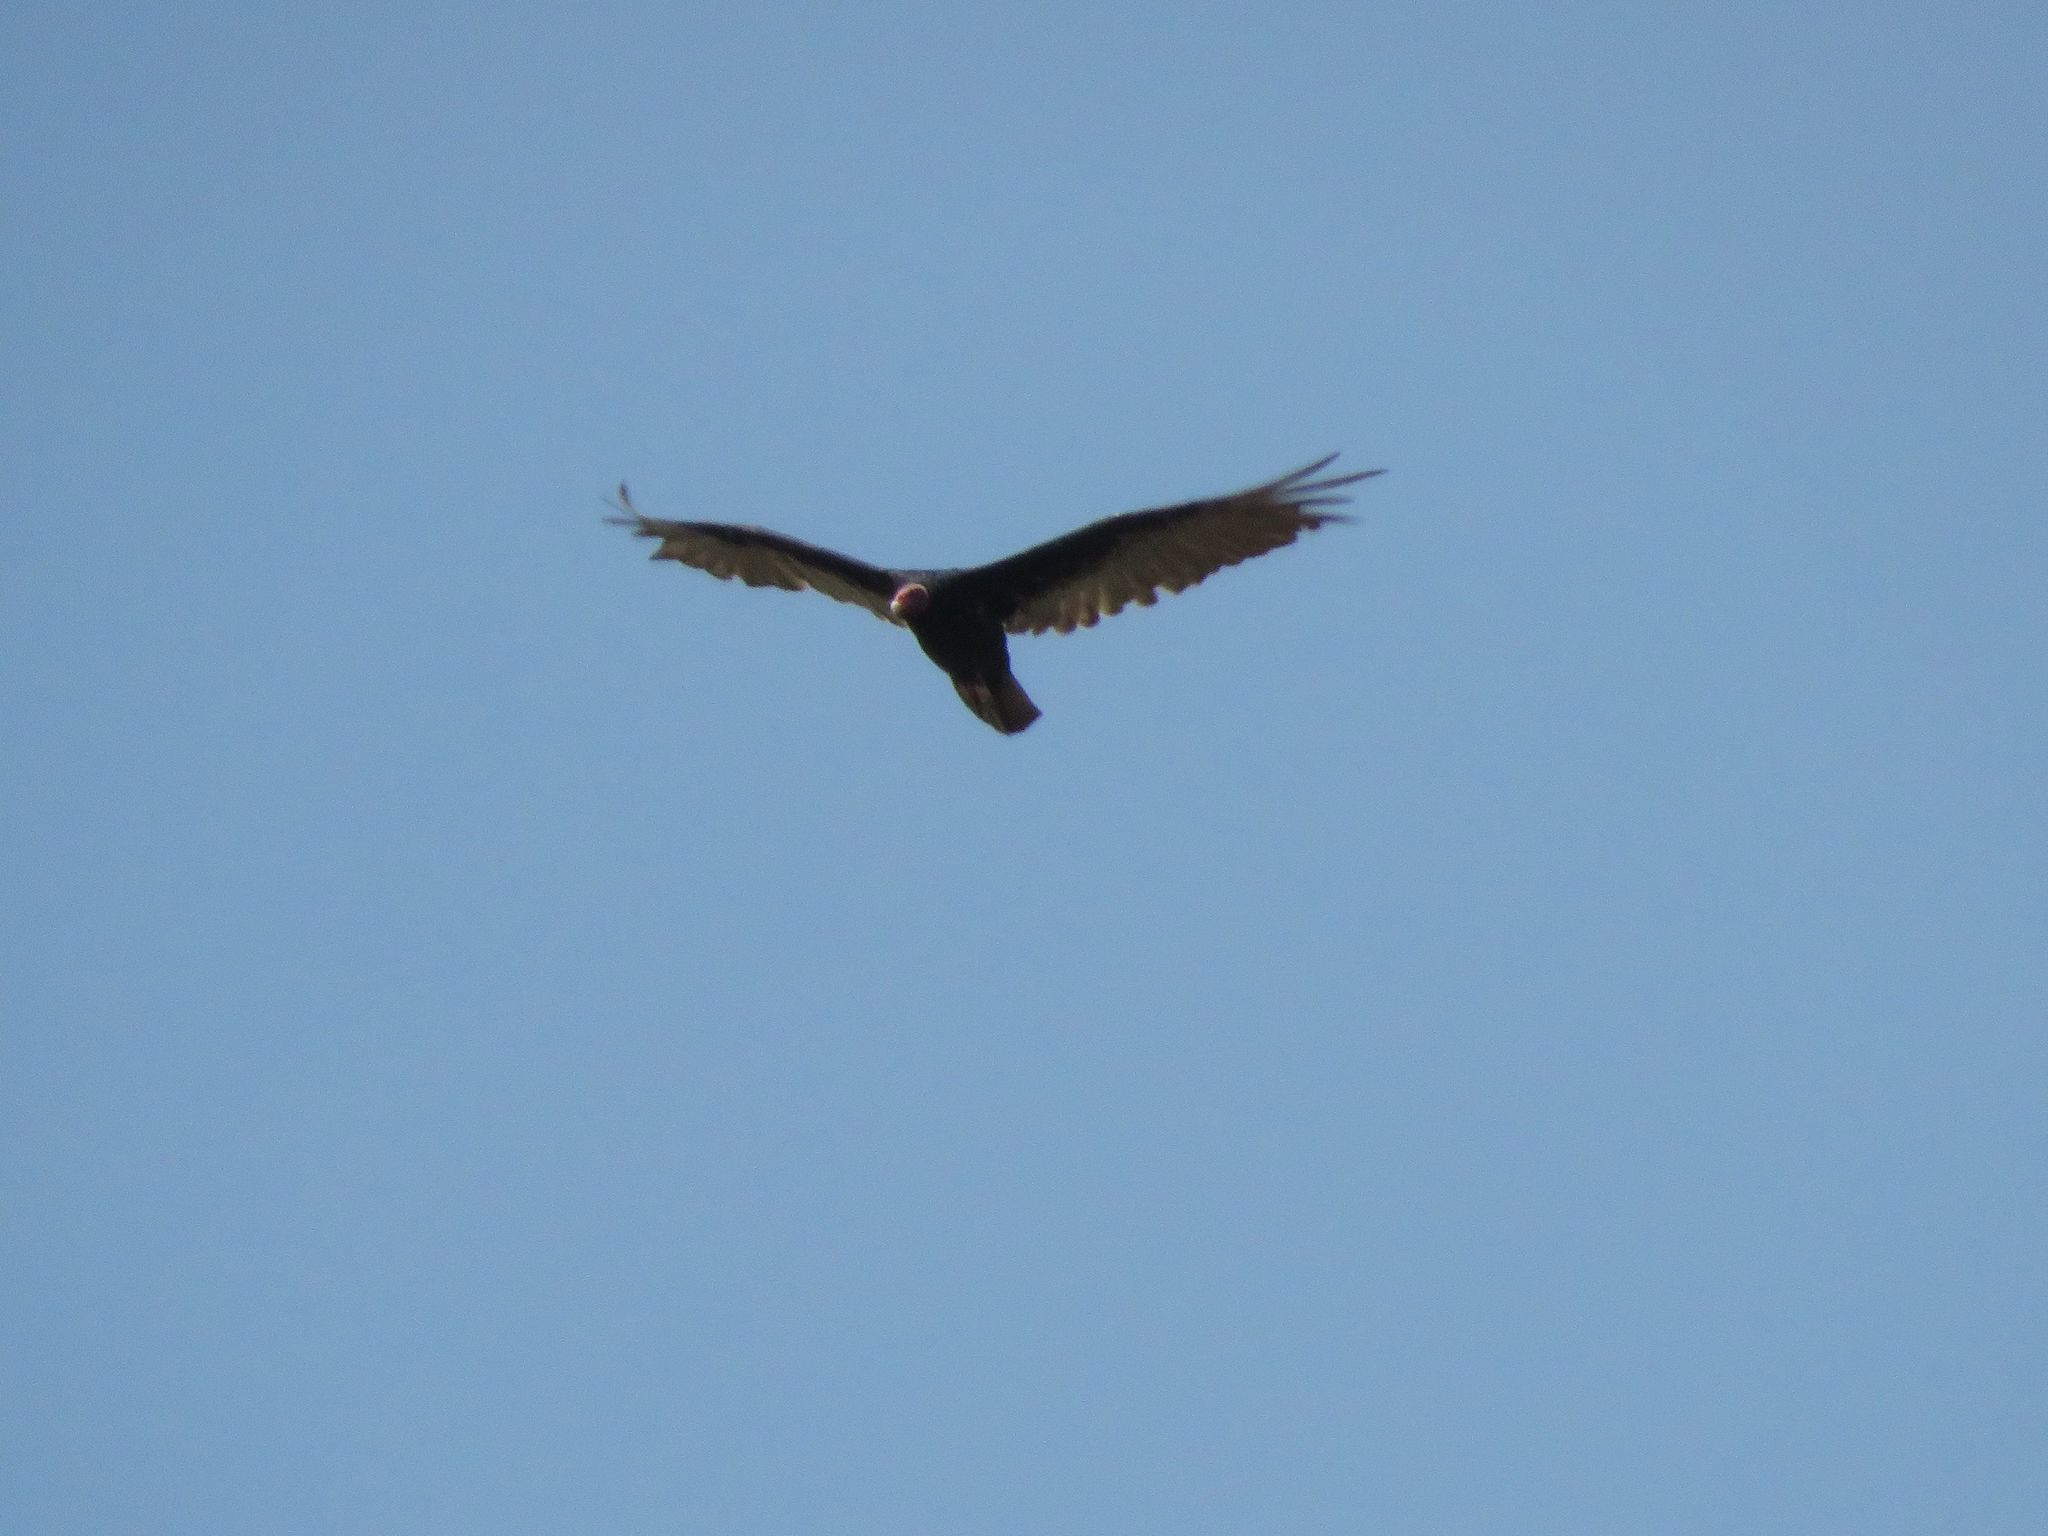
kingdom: Animalia
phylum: Chordata
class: Aves
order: Accipitriformes
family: Cathartidae
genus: Cathartes
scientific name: Cathartes aura
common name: Turkey vulture
